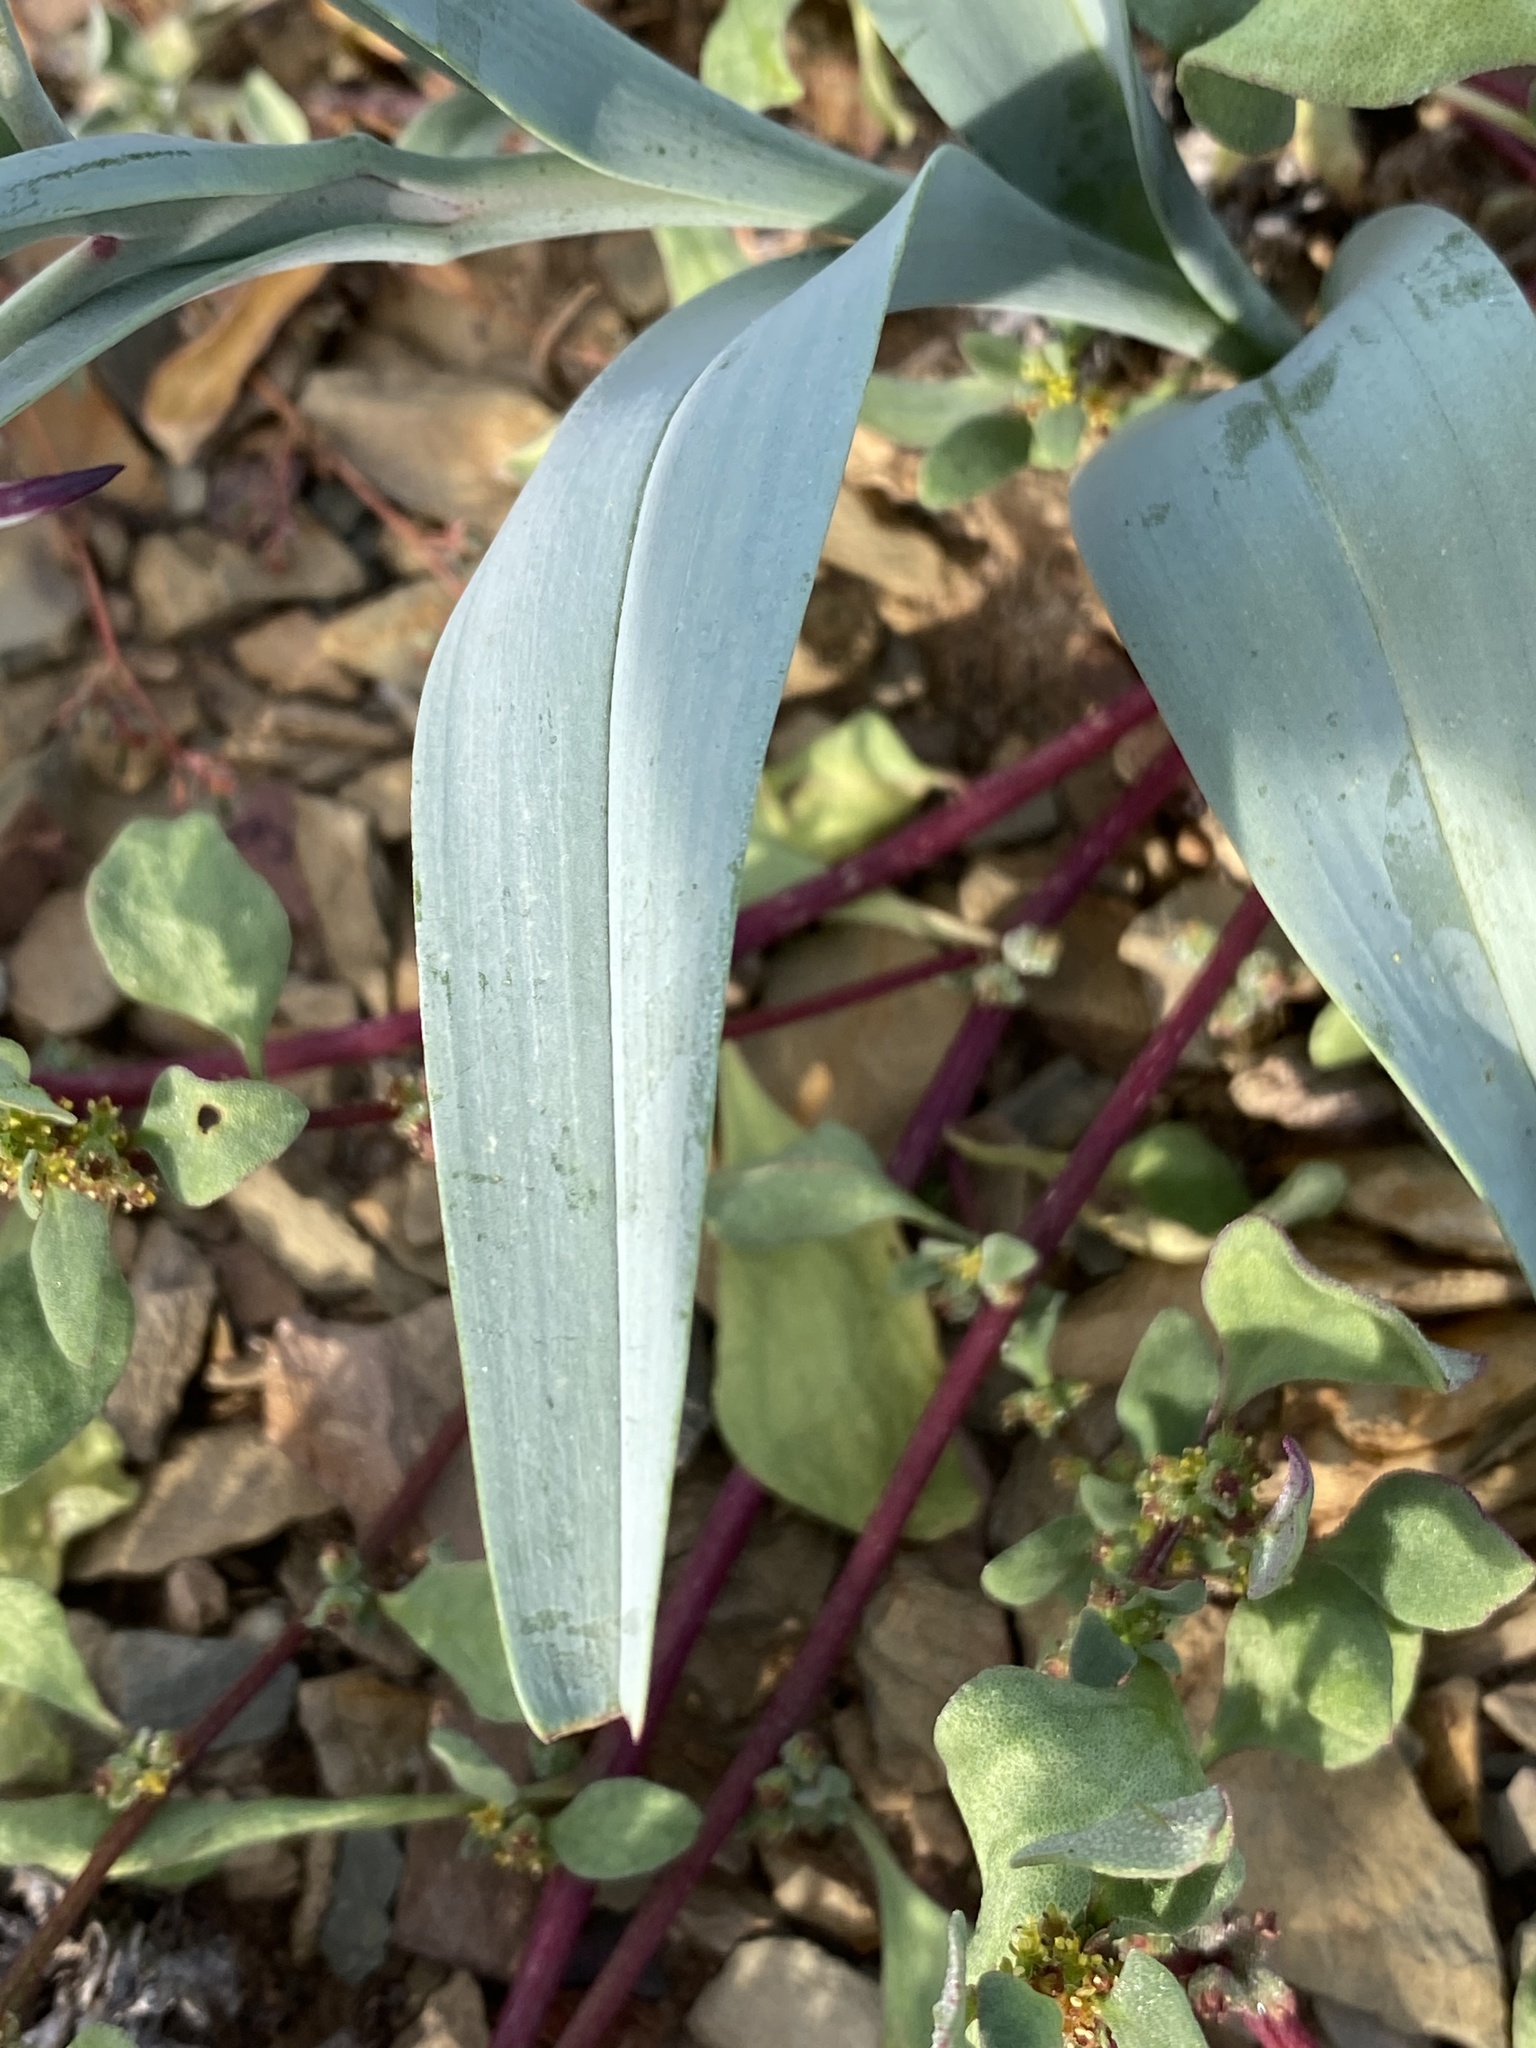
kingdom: Plantae
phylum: Tracheophyta
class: Liliopsida
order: Liliales
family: Colchicaceae
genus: Ornithoglossum
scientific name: Ornithoglossum undulatum
